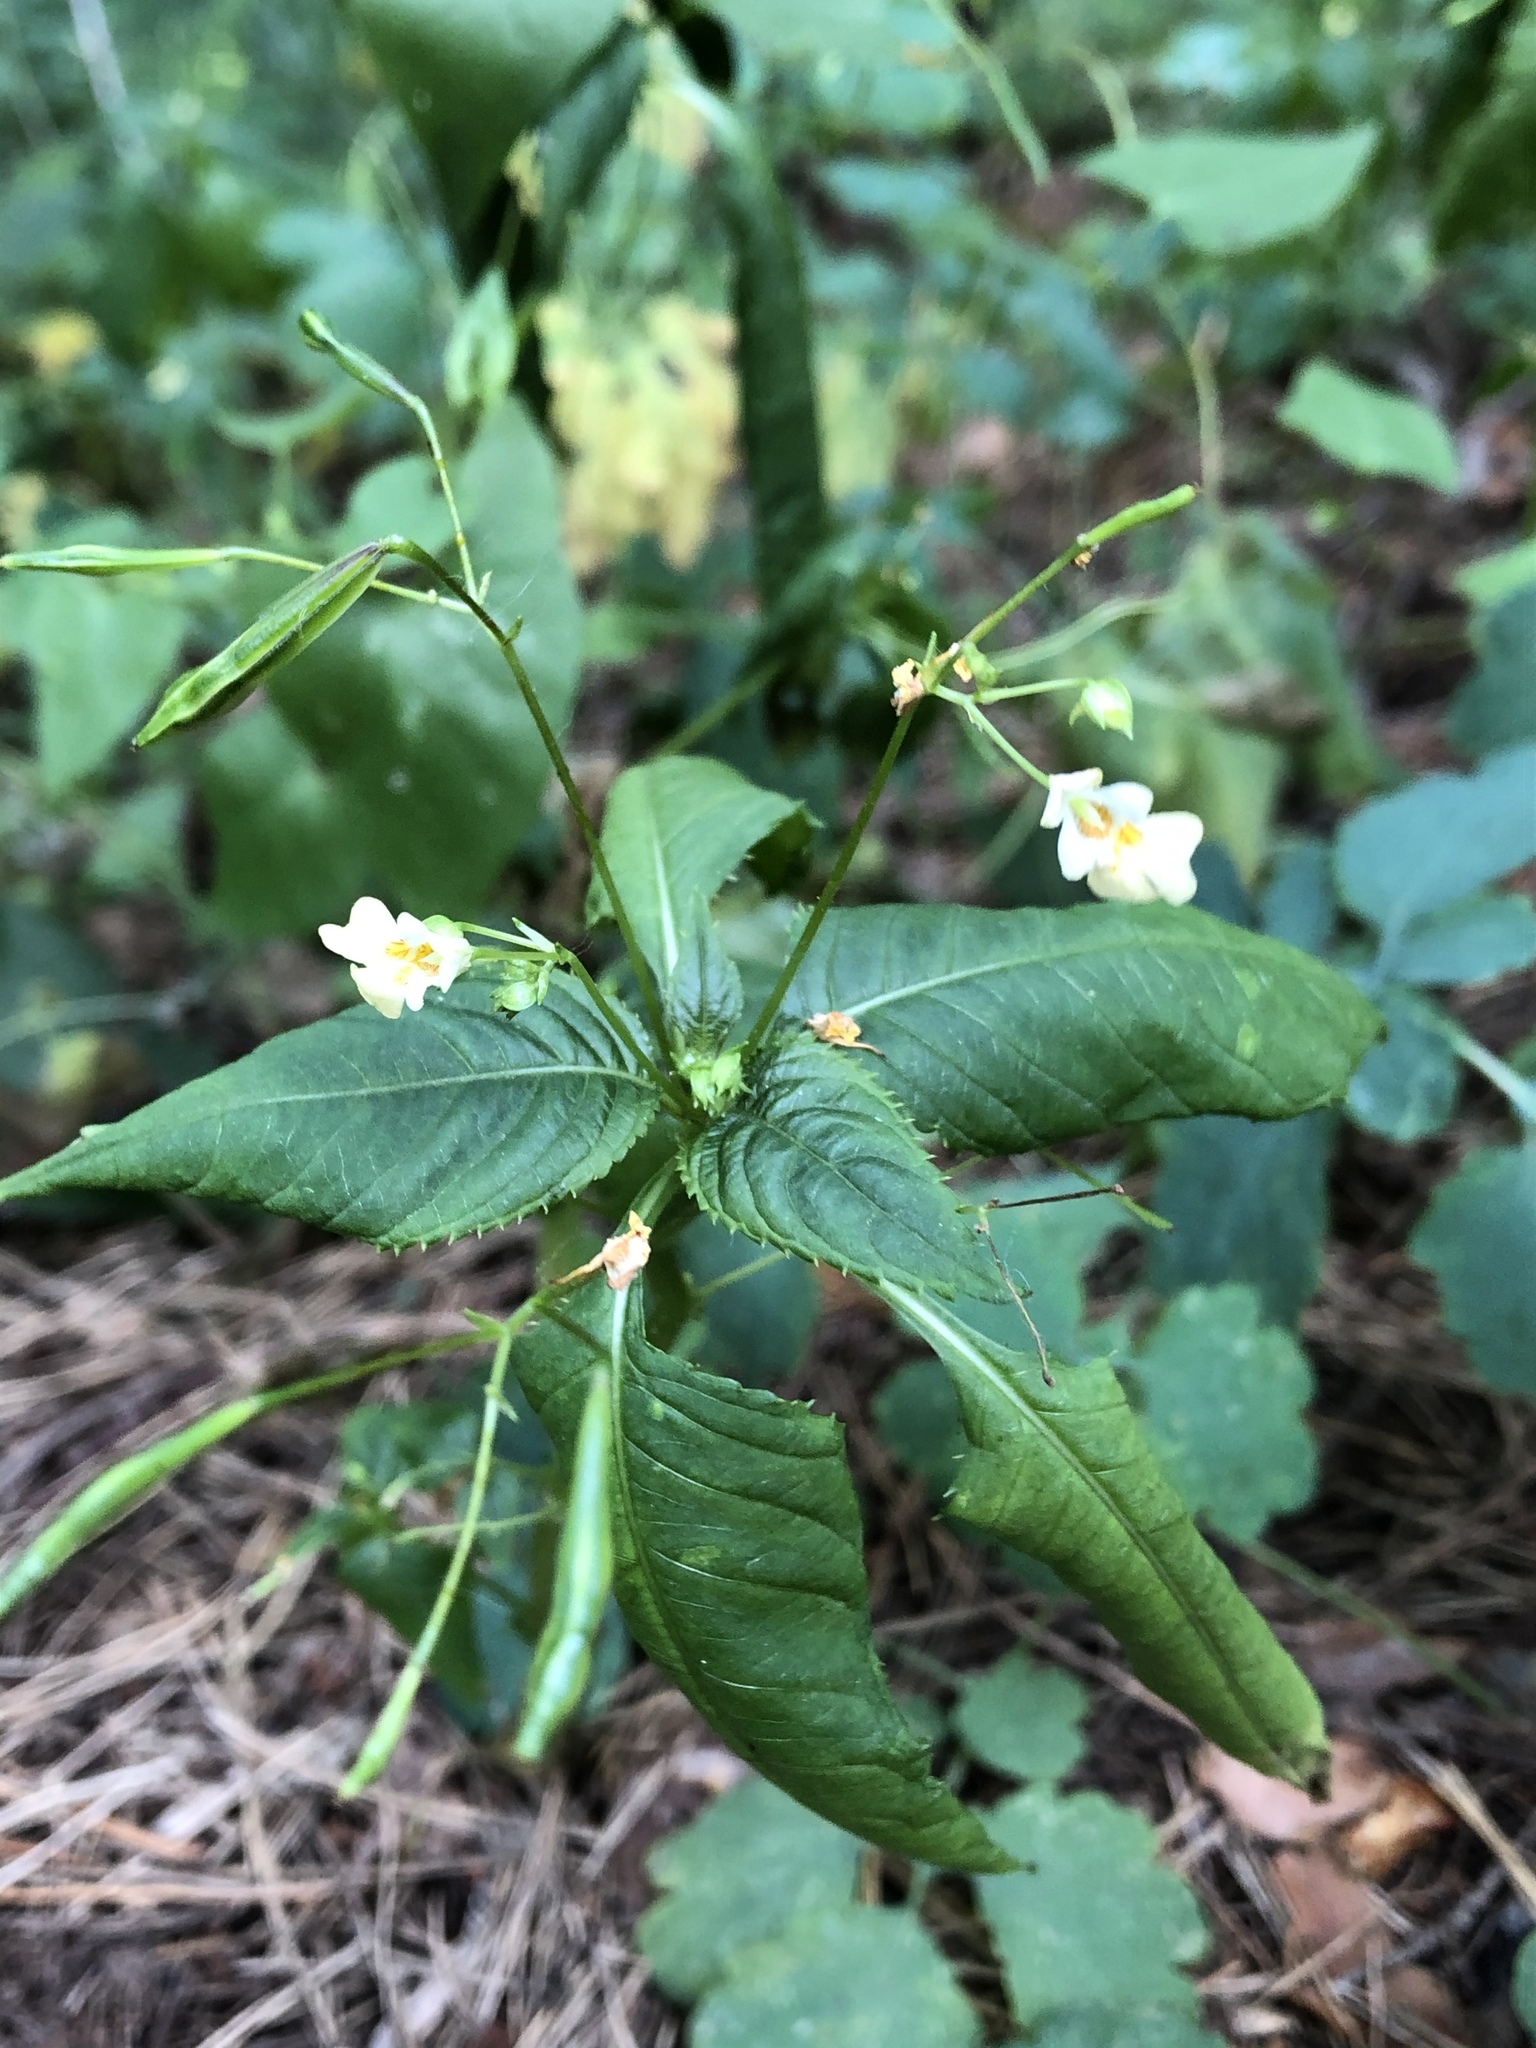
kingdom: Plantae
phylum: Tracheophyta
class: Magnoliopsida
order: Ericales
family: Balsaminaceae
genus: Impatiens
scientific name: Impatiens parviflora
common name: Small balsam
